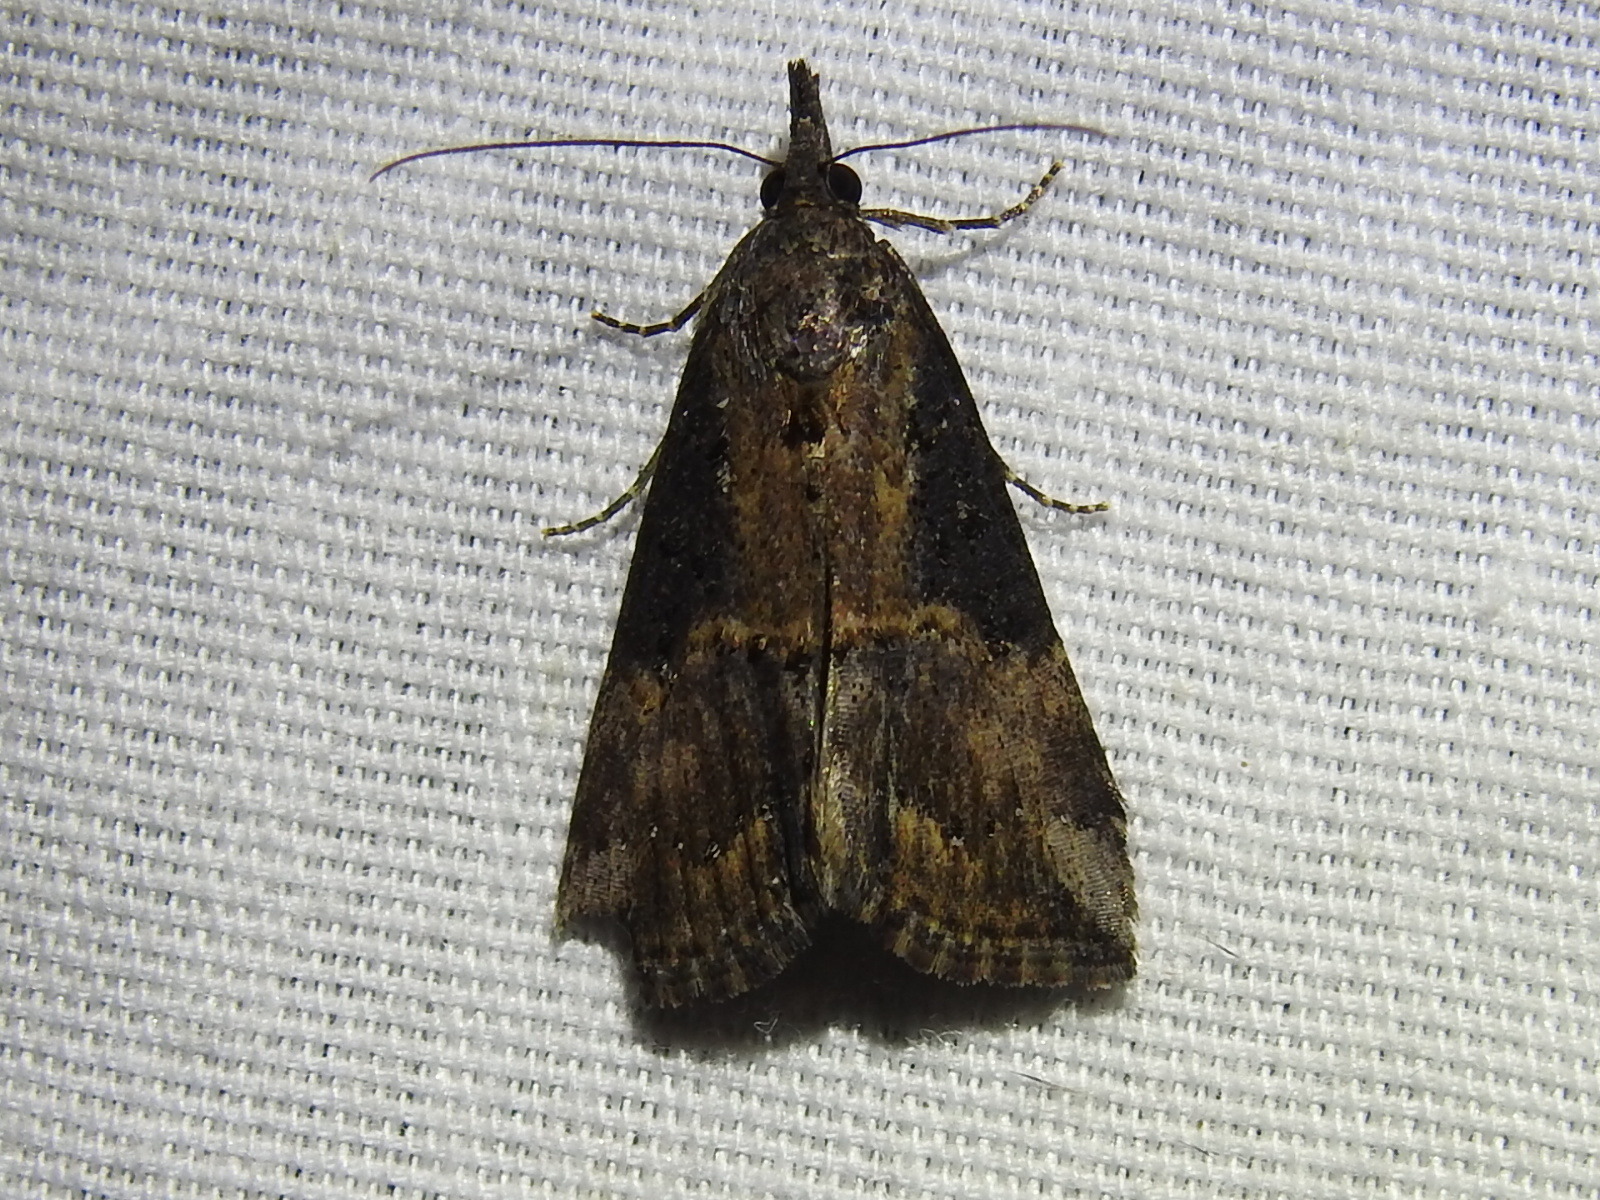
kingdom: Animalia
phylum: Arthropoda
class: Insecta
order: Lepidoptera
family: Erebidae
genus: Hypena
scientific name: Hypena scabra
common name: Green cloverworm
